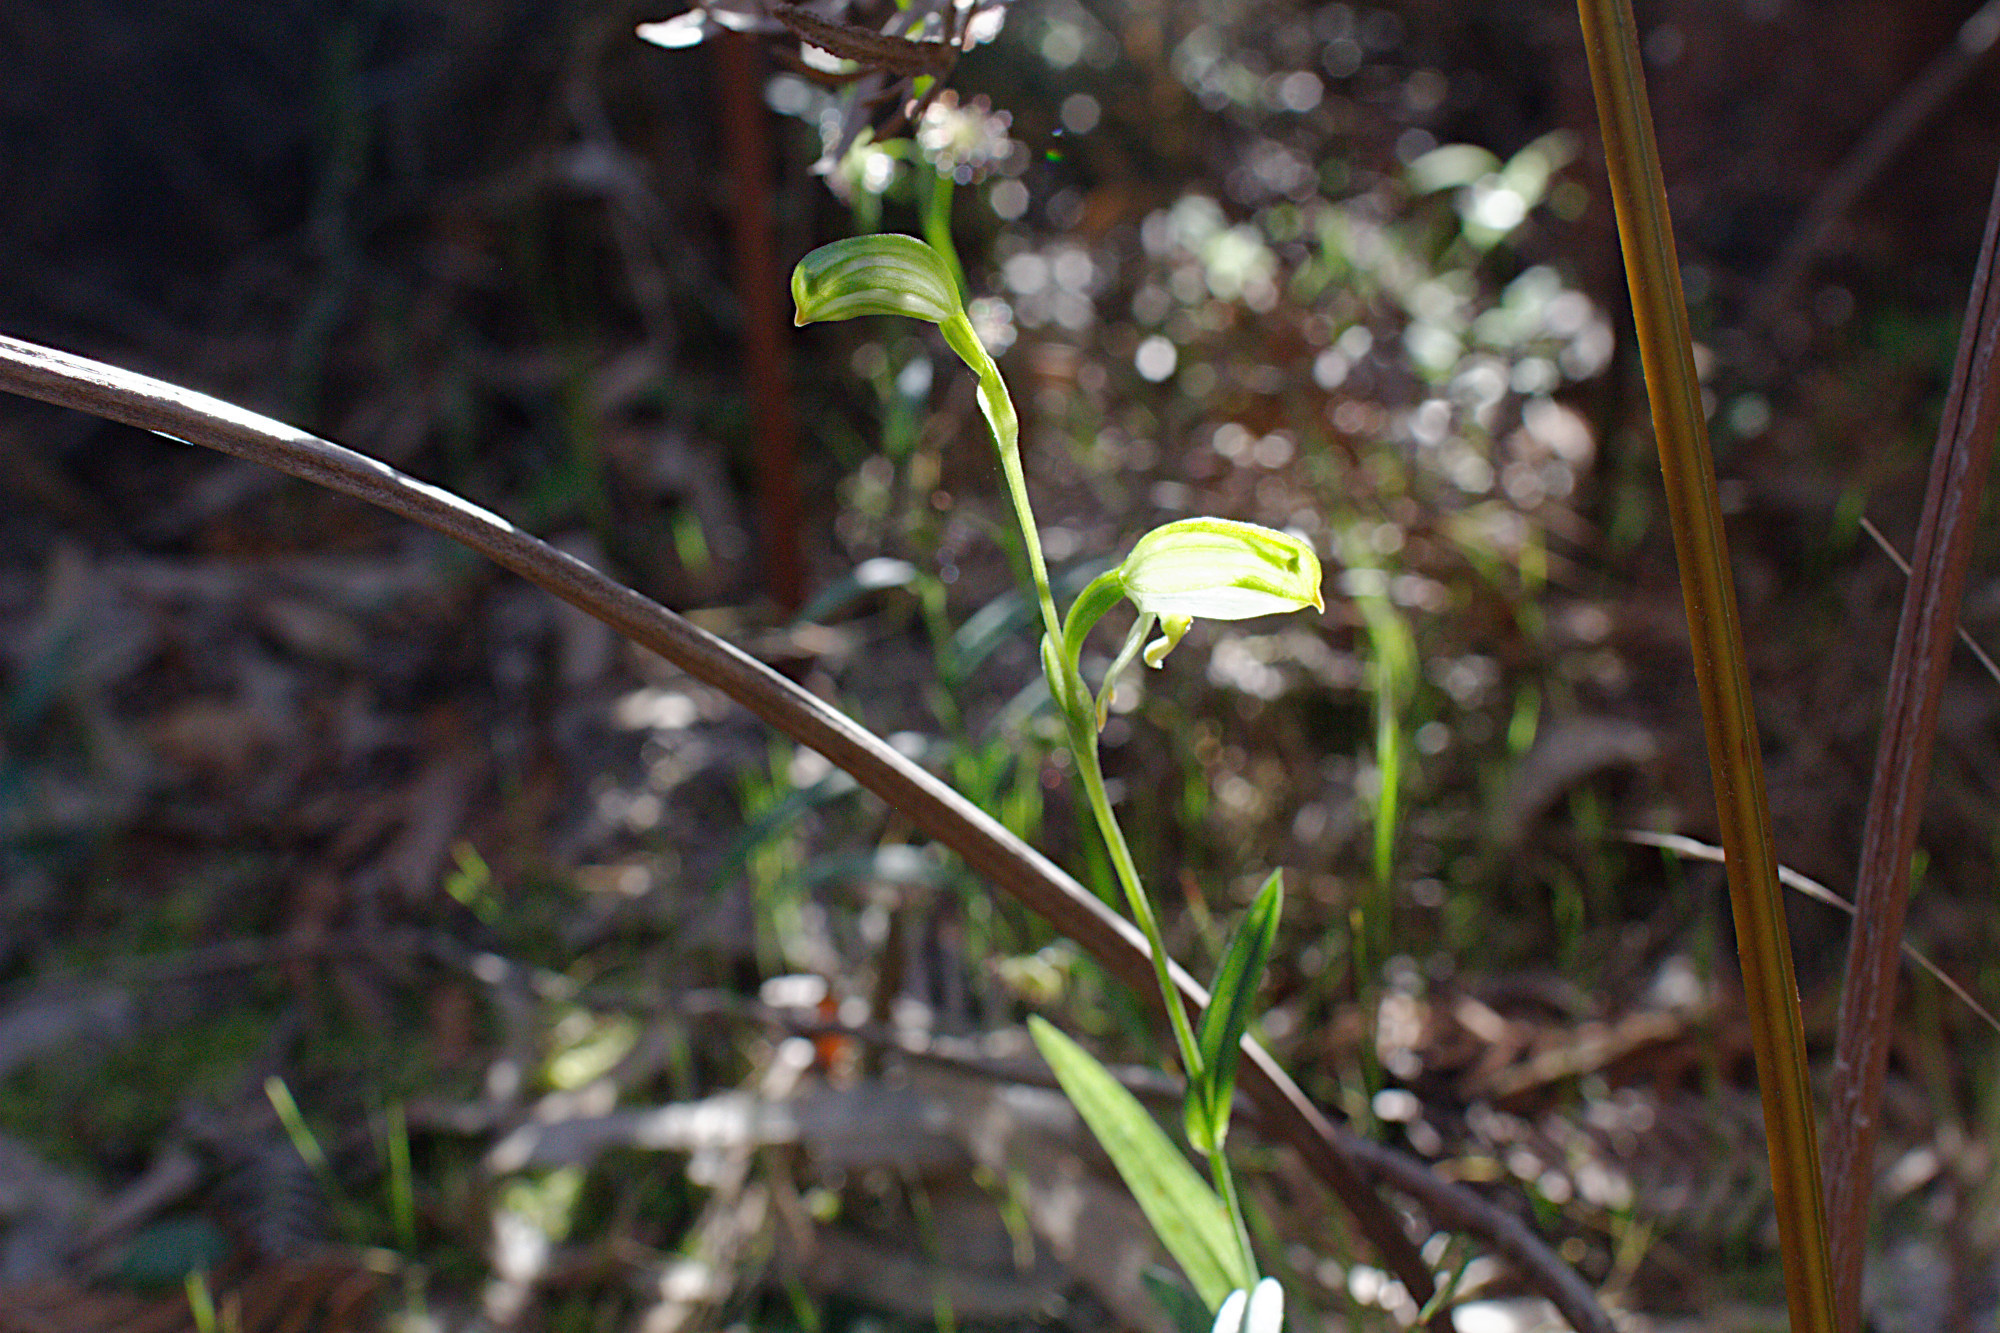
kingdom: Plantae
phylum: Tracheophyta
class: Liliopsida
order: Asparagales
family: Orchidaceae
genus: Pterostylis
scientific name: Pterostylis melagramma
